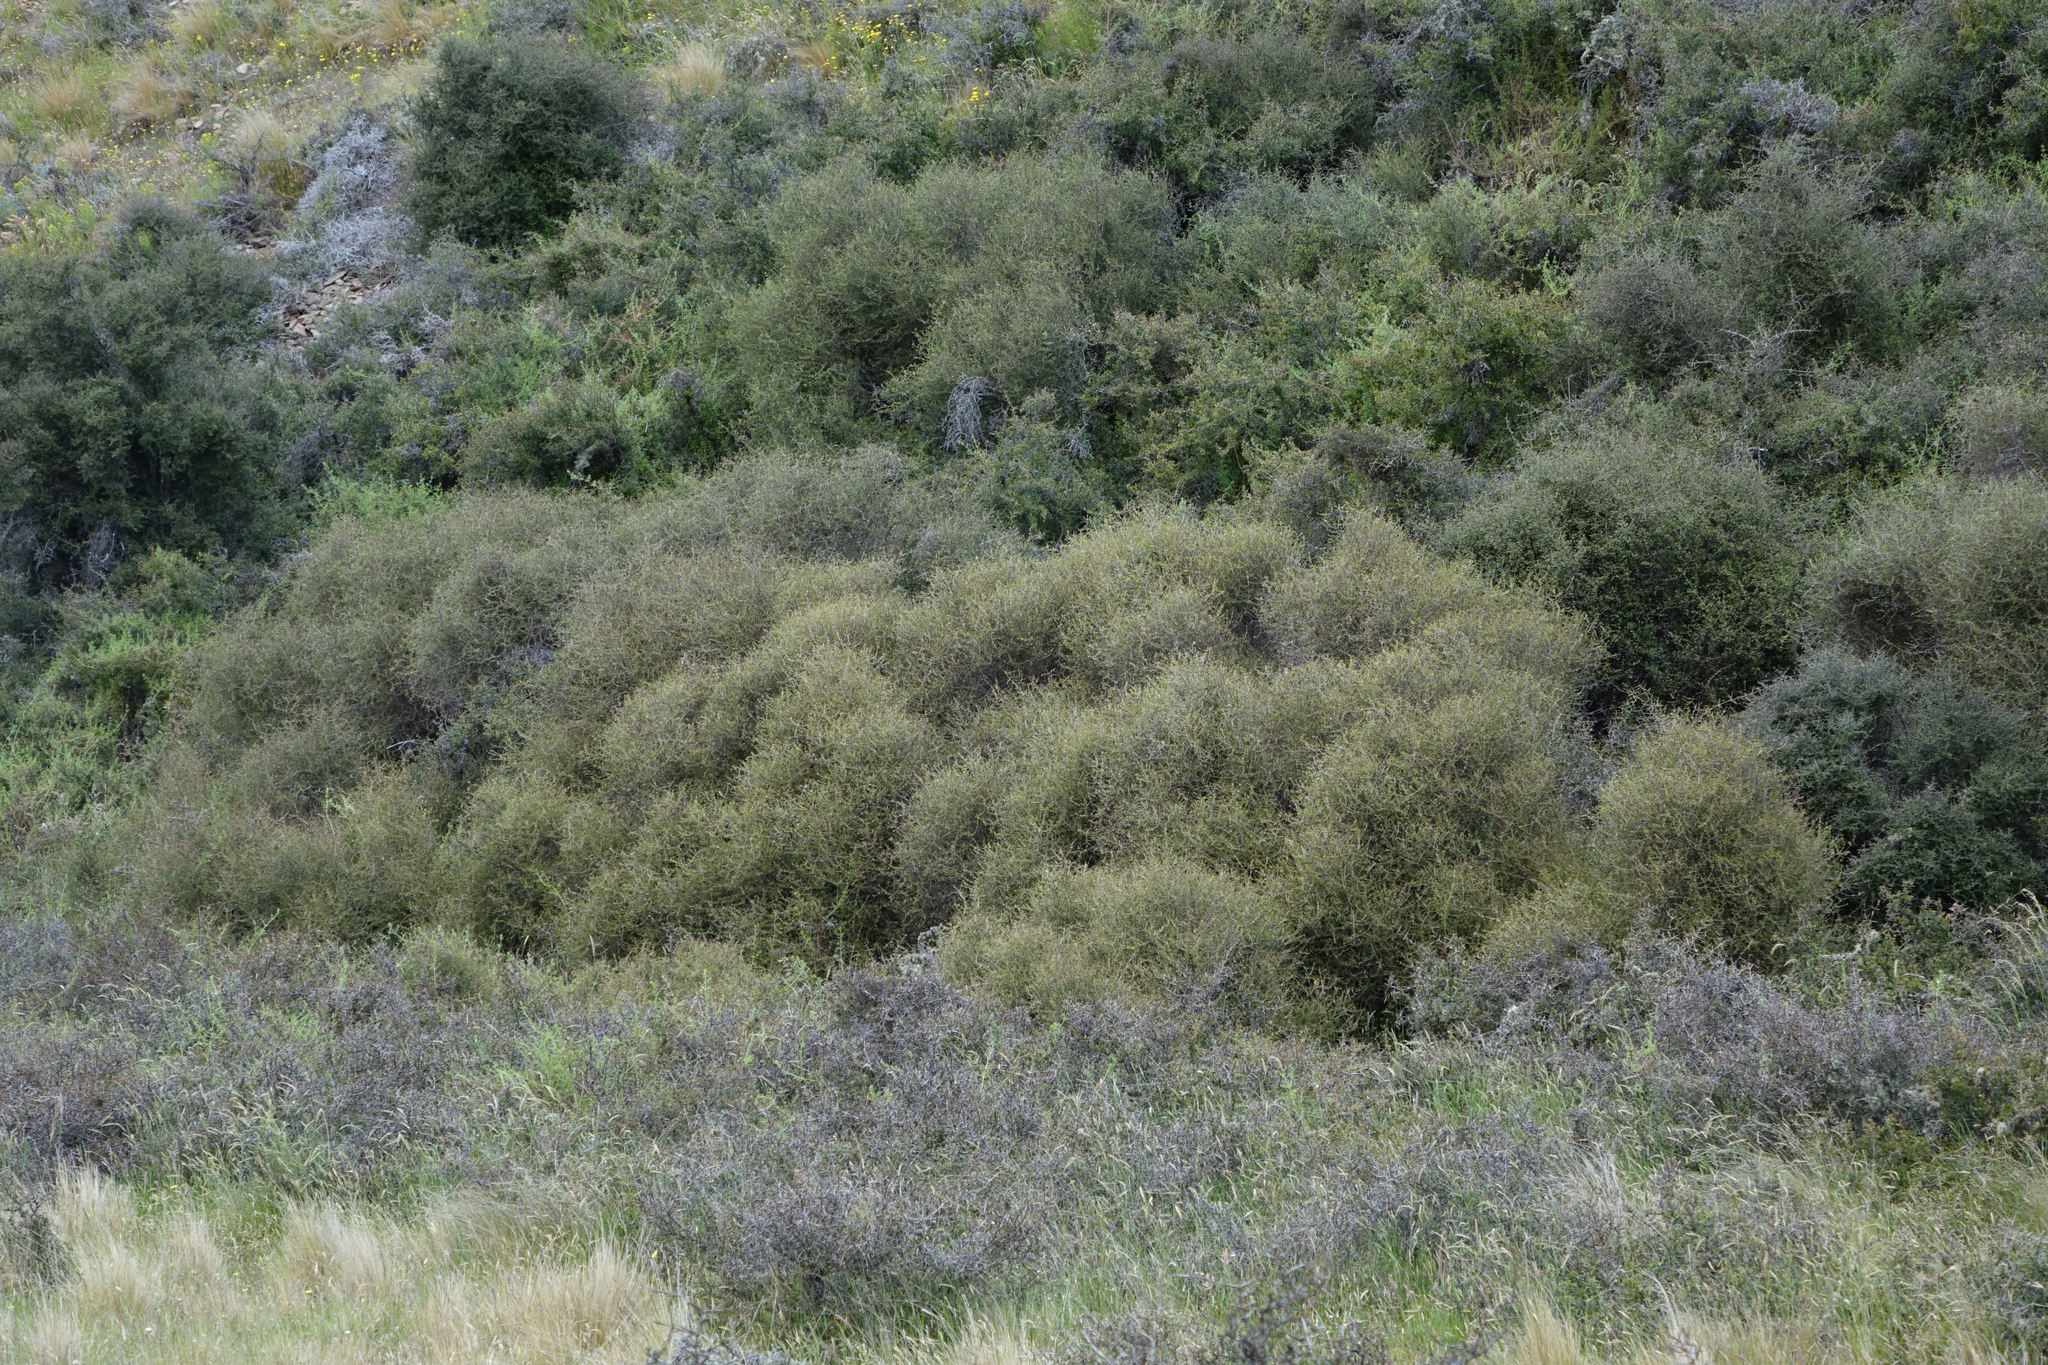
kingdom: Plantae
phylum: Tracheophyta
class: Magnoliopsida
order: Gentianales
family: Rubiaceae
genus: Coprosma
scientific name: Coprosma intertexta
